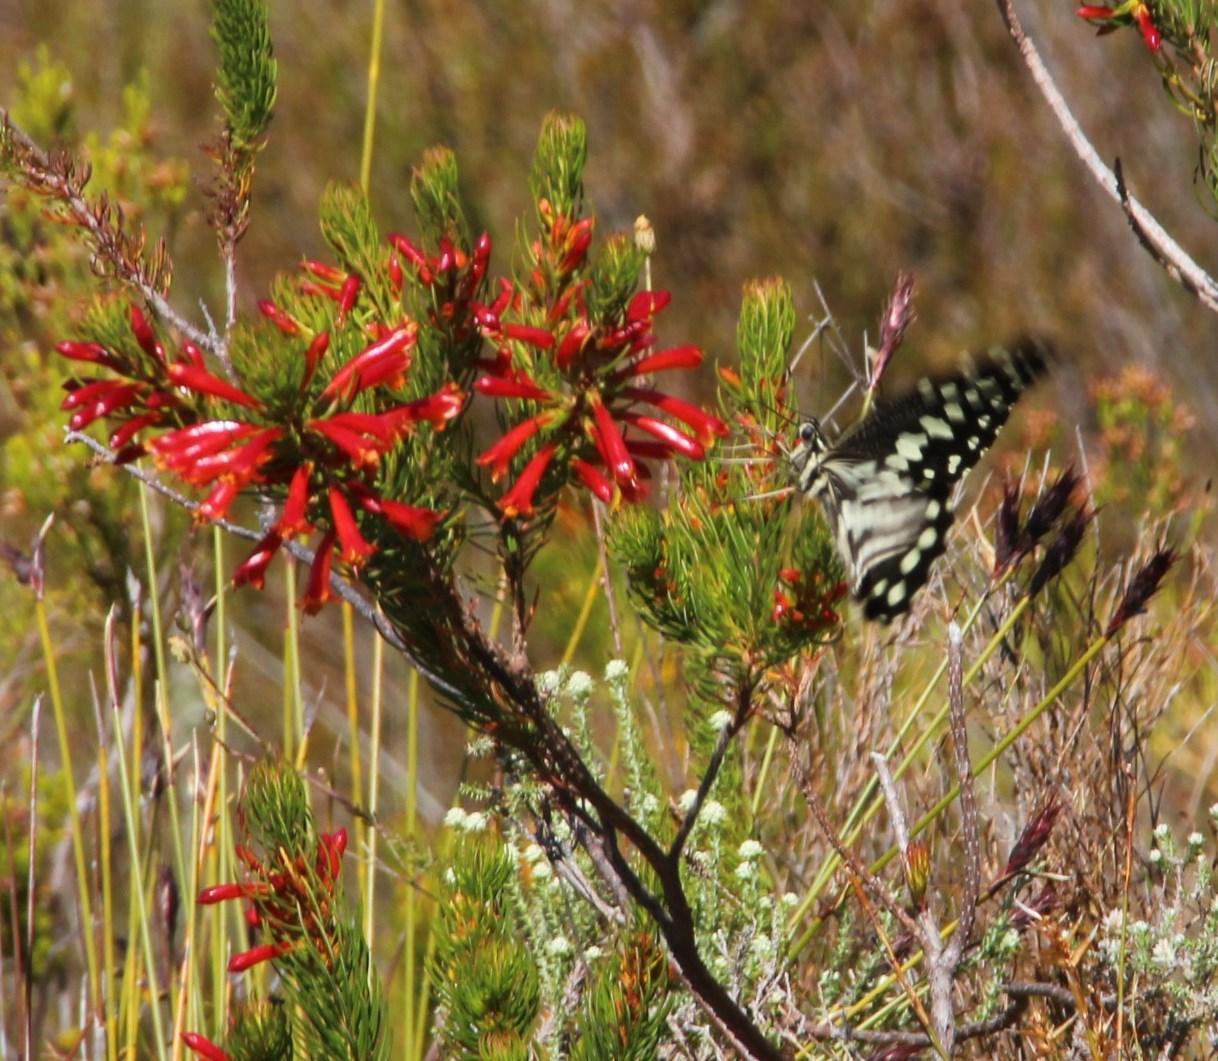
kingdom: Plantae
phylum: Tracheophyta
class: Magnoliopsida
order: Ericales
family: Ericaceae
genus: Erica
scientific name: Erica grandiflora
